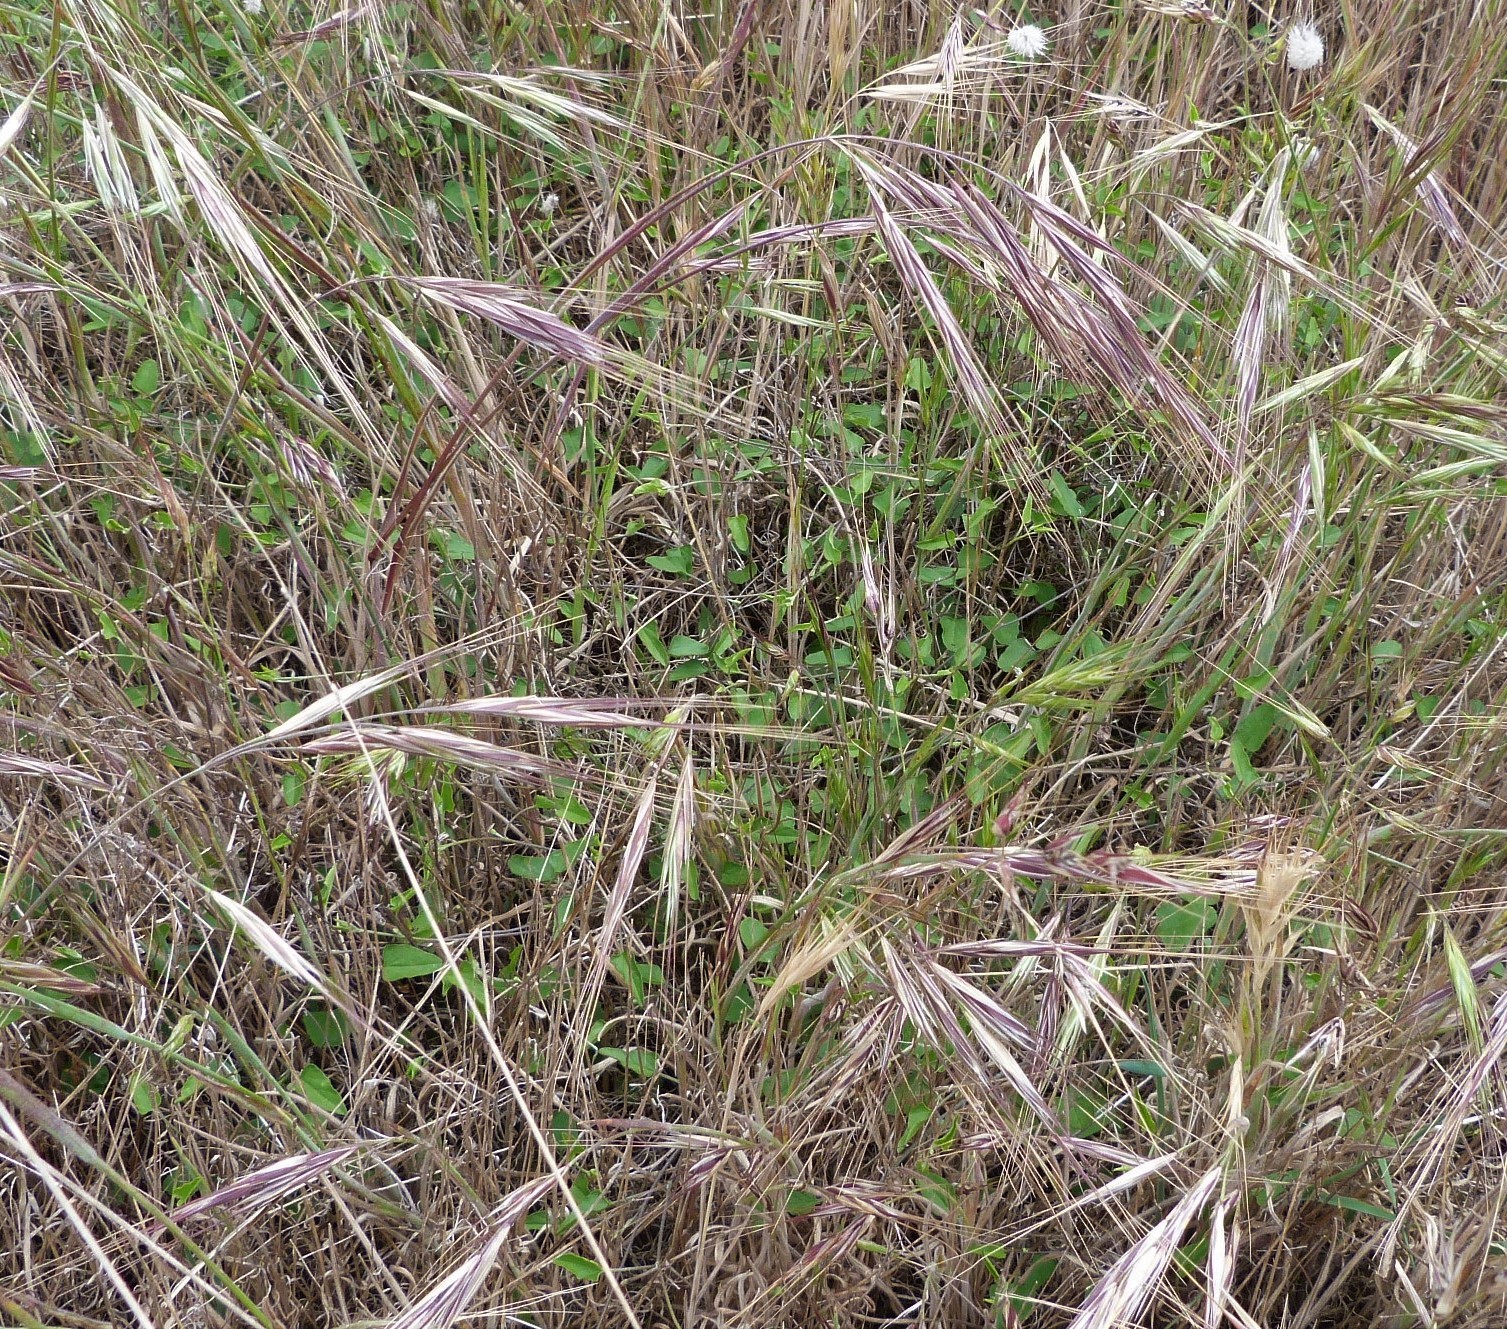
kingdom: Plantae
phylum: Tracheophyta
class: Magnoliopsida
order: Solanales
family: Convolvulaceae
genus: Convolvulus
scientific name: Convolvulus waitaha
